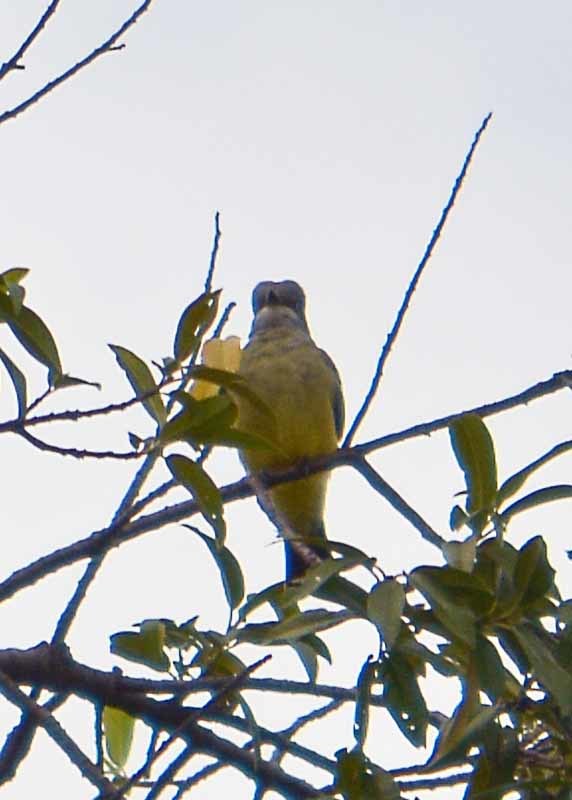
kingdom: Animalia
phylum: Chordata
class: Aves
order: Passeriformes
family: Tyrannidae
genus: Tyrannus
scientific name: Tyrannus vociferans
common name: Cassin's kingbird
